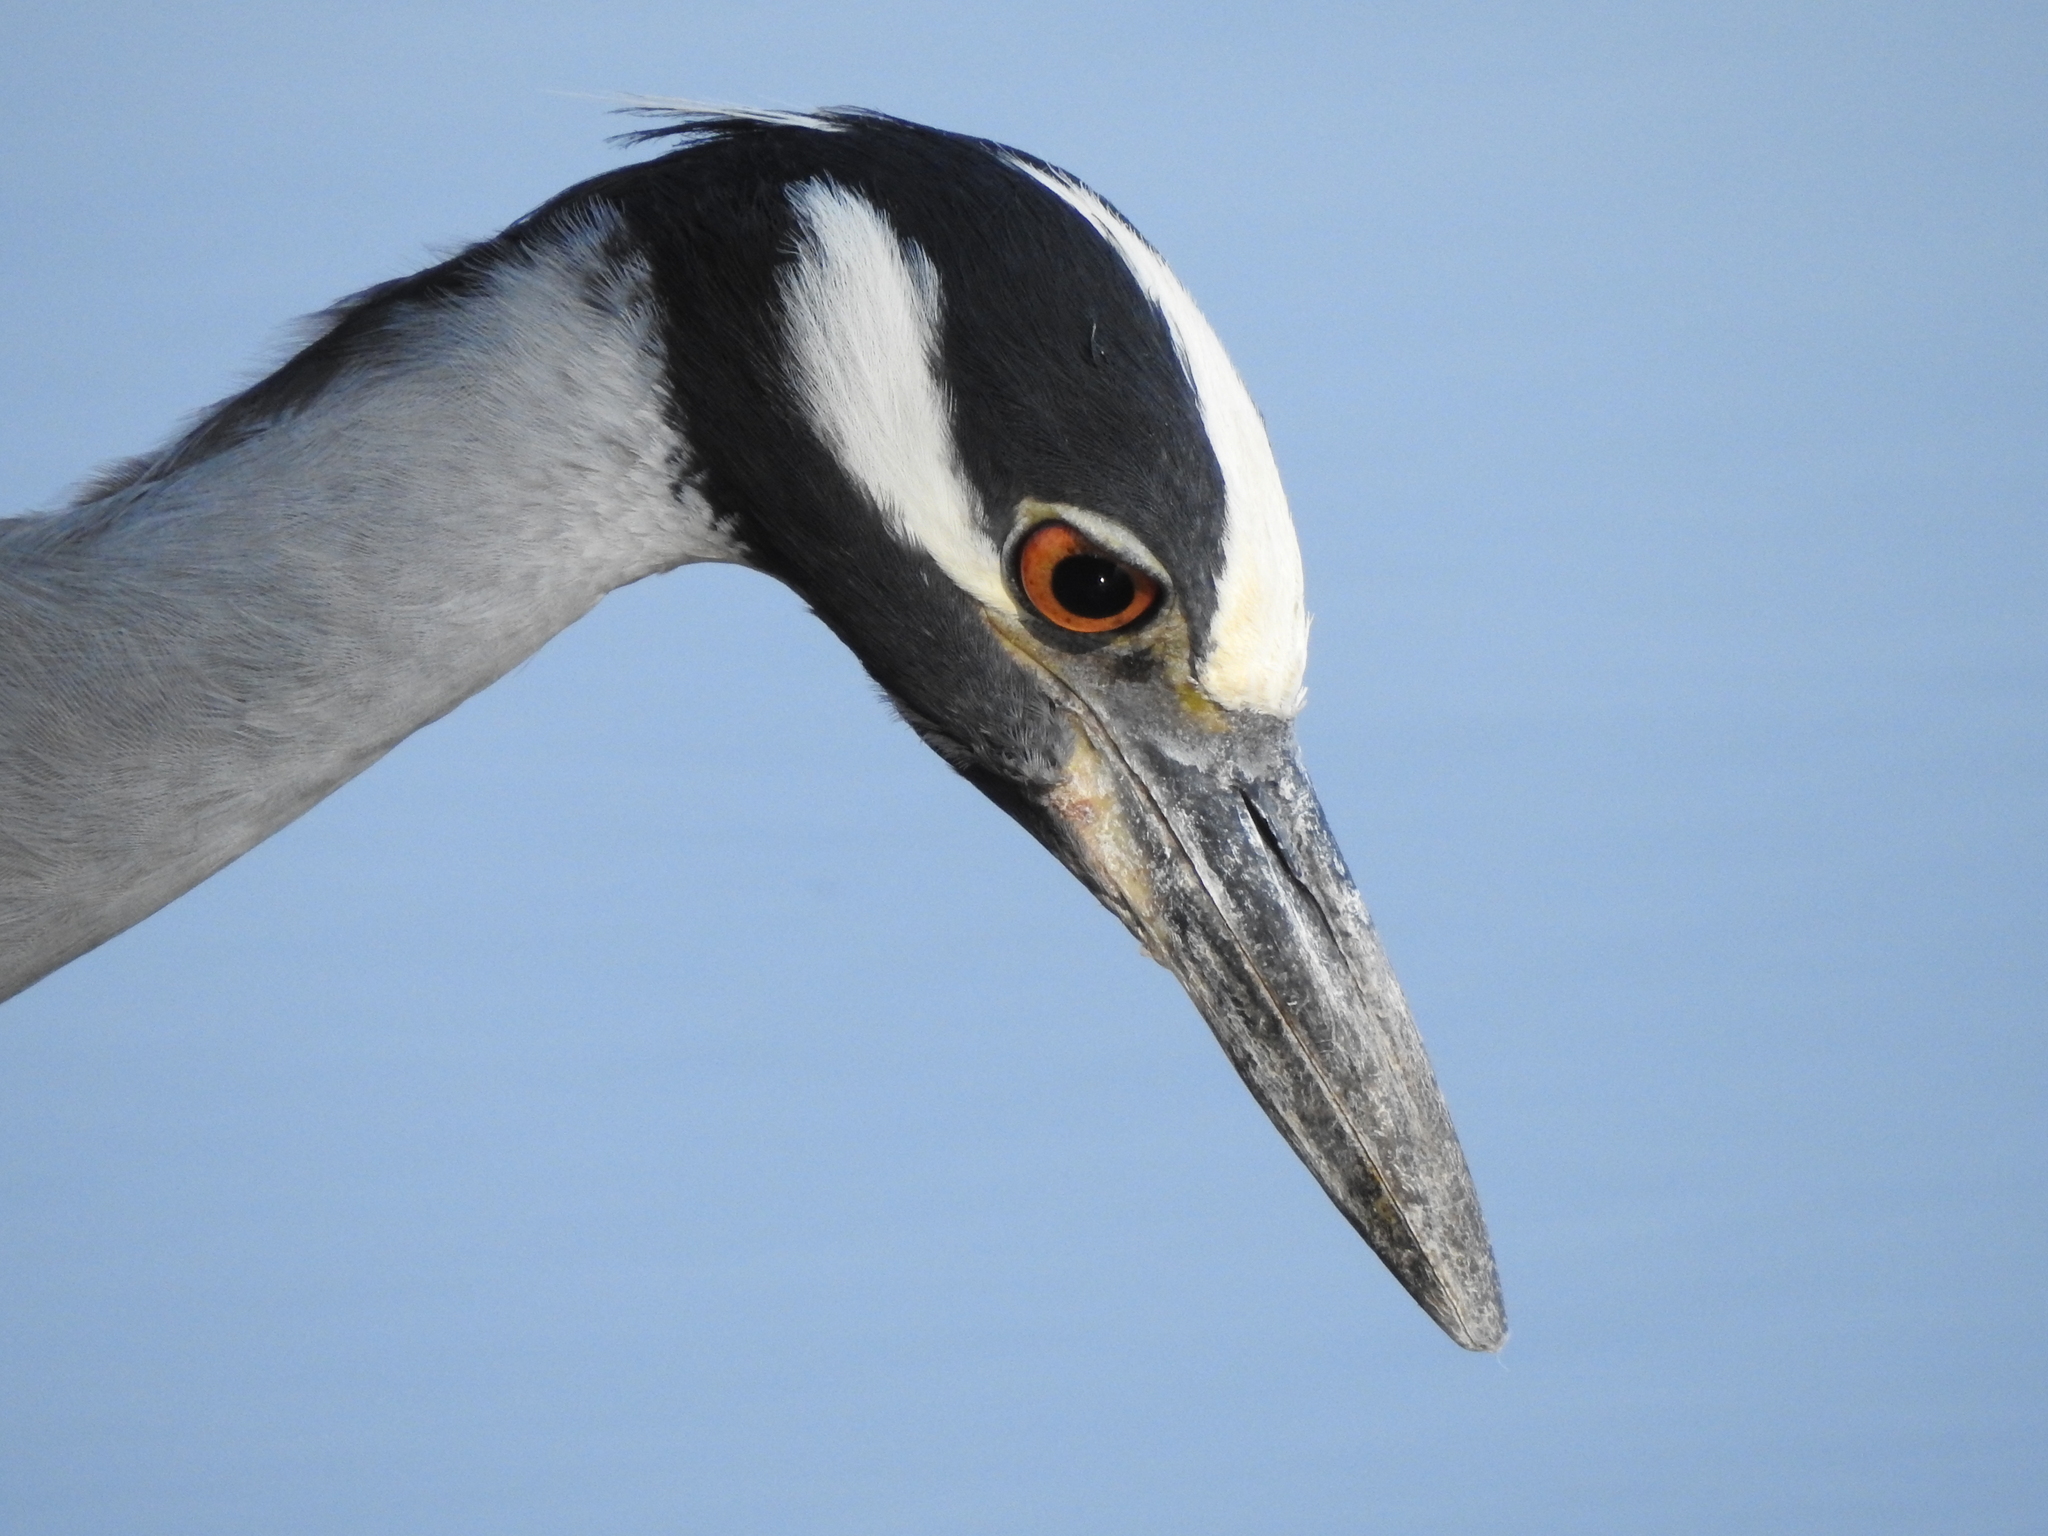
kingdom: Animalia
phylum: Chordata
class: Aves
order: Pelecaniformes
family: Ardeidae
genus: Nyctanassa
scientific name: Nyctanassa violacea
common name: Yellow-crowned night heron
